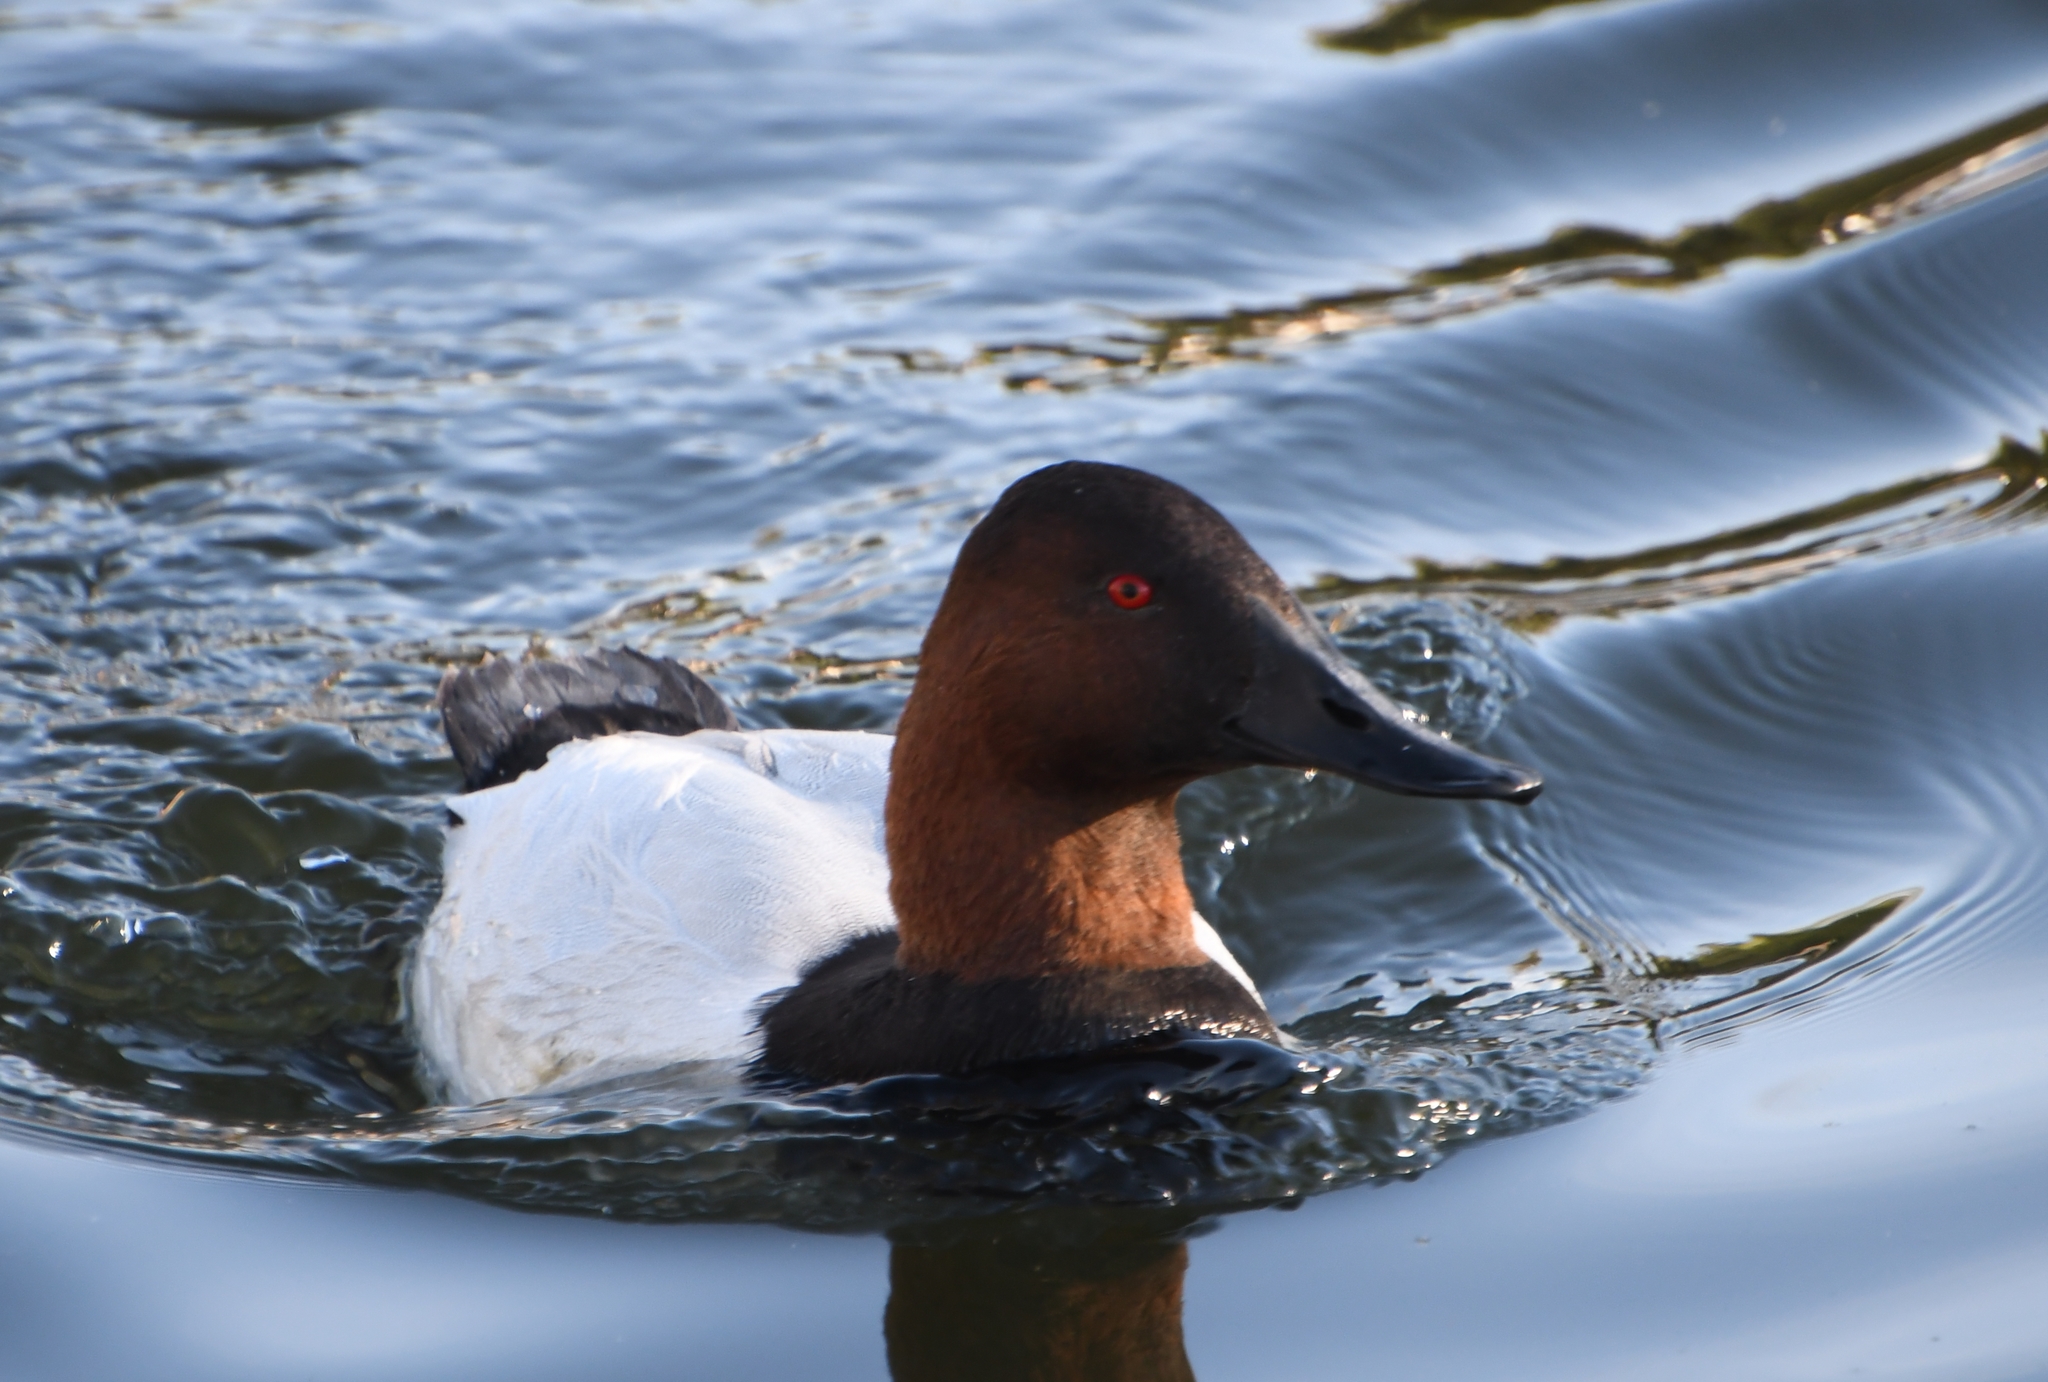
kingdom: Animalia
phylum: Chordata
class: Aves
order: Anseriformes
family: Anatidae
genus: Aythya
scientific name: Aythya valisineria
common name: Canvasback
